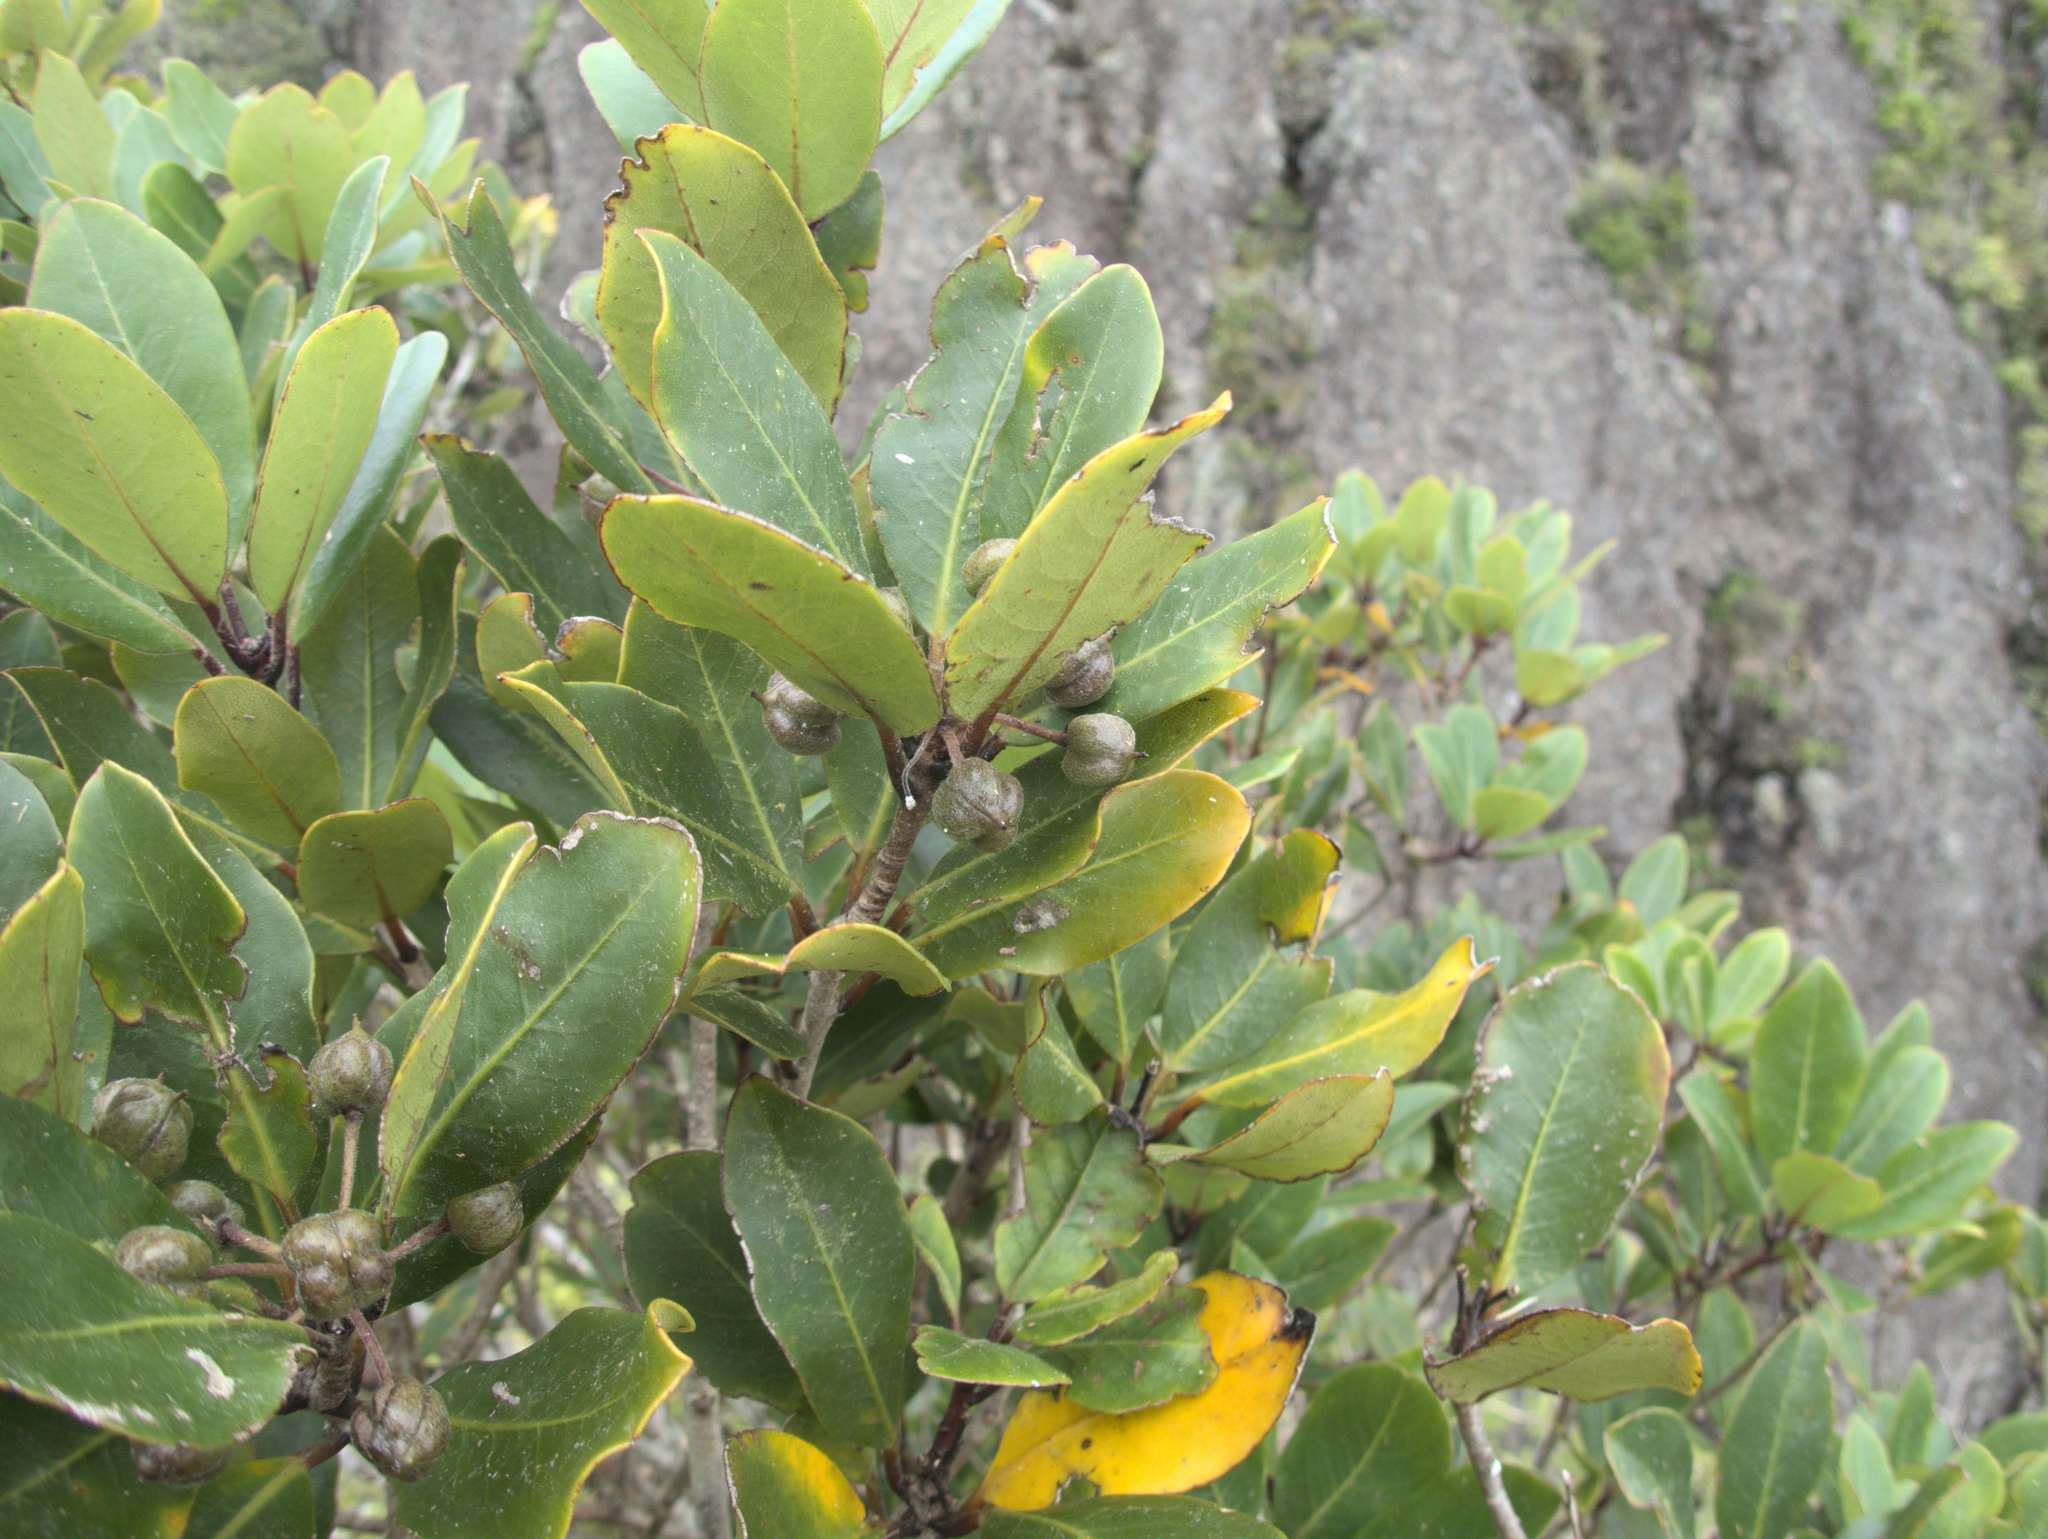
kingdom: Plantae
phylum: Tracheophyta
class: Magnoliopsida
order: Apiales
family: Pittosporaceae
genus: Pittosporum
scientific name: Pittosporum umbellatum
